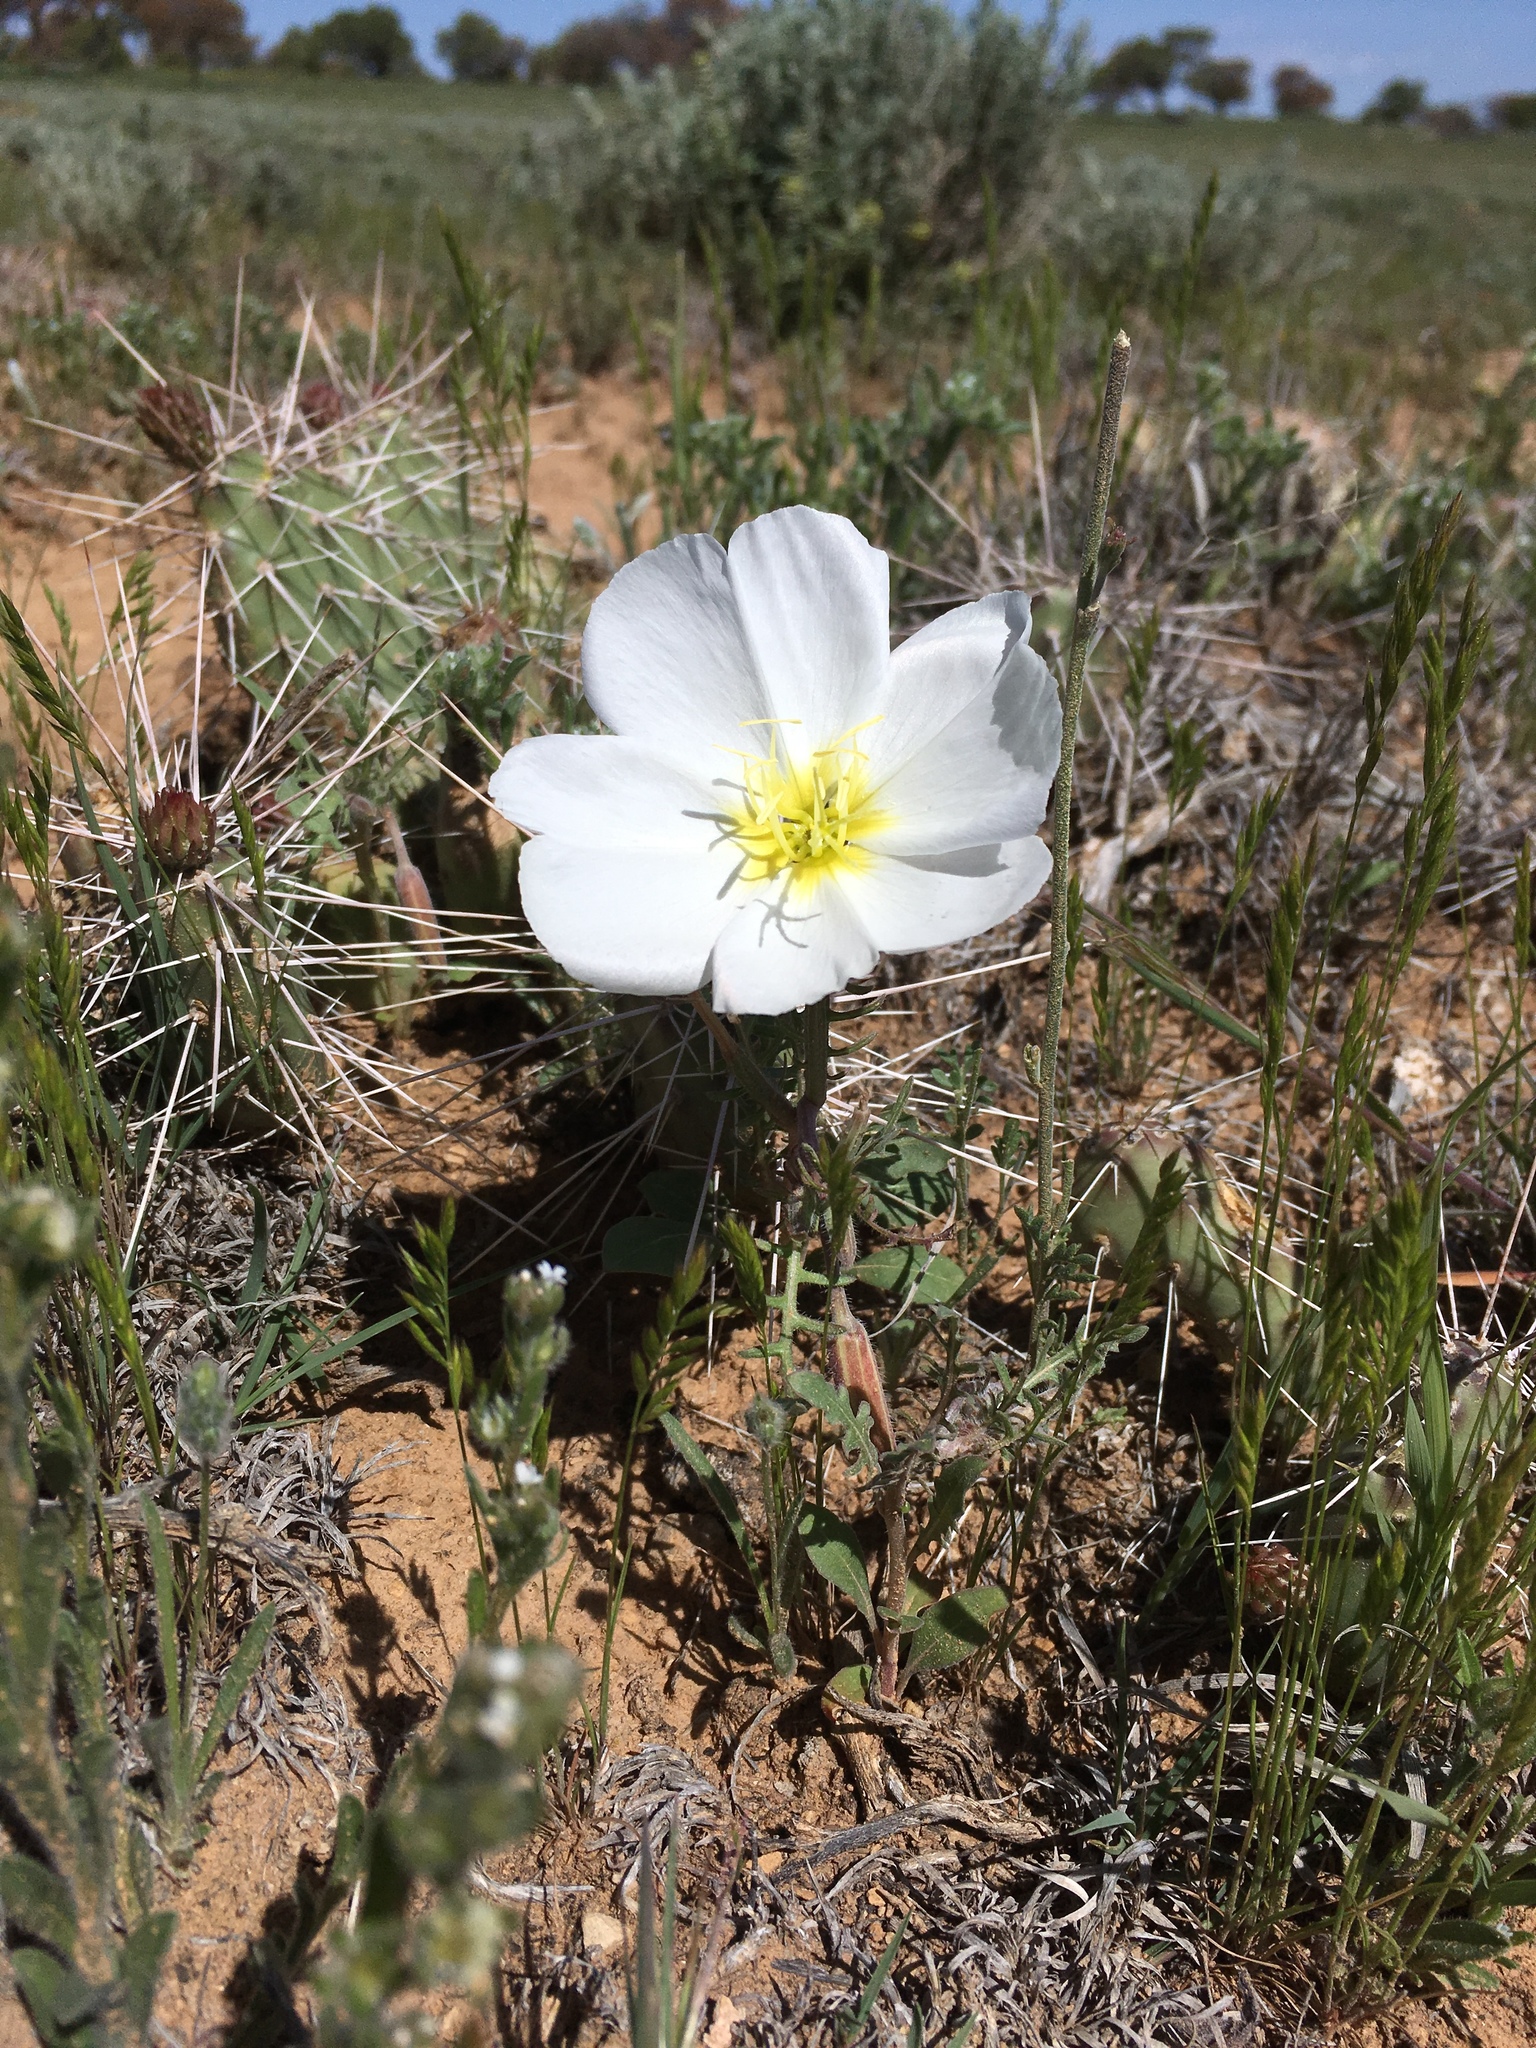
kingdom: Plantae
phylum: Tracheophyta
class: Magnoliopsida
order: Myrtales
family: Onagraceae
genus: Oenothera
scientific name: Oenothera albicaulis
